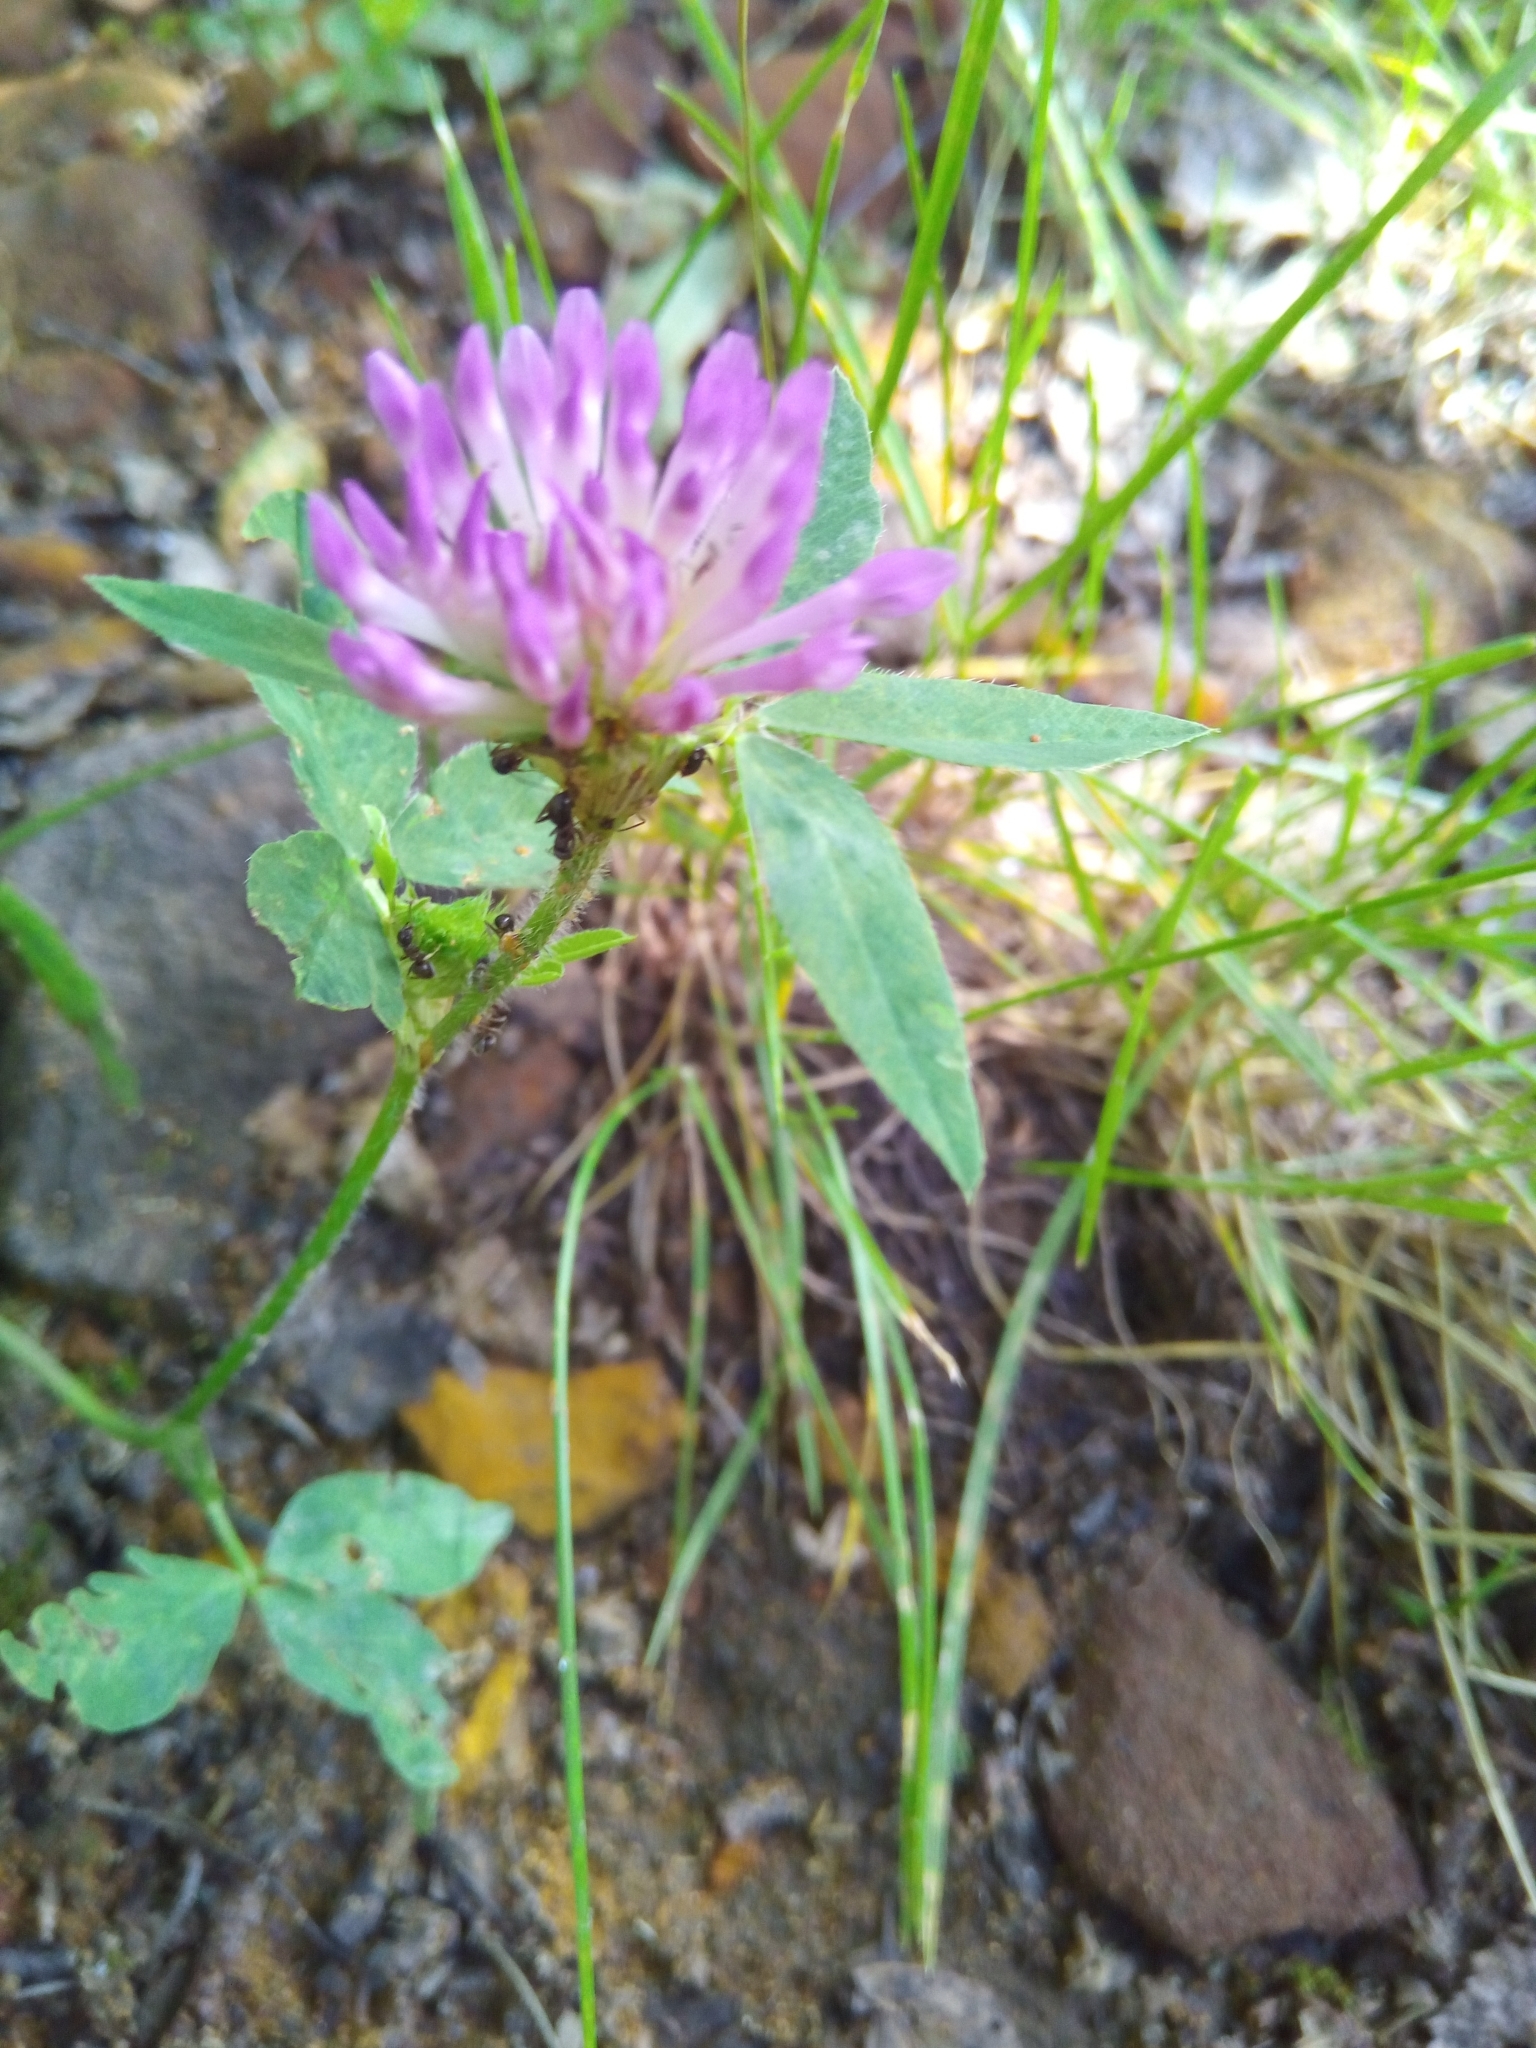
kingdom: Plantae
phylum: Tracheophyta
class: Magnoliopsida
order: Fabales
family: Fabaceae
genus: Trifolium
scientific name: Trifolium pratense
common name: Red clover
